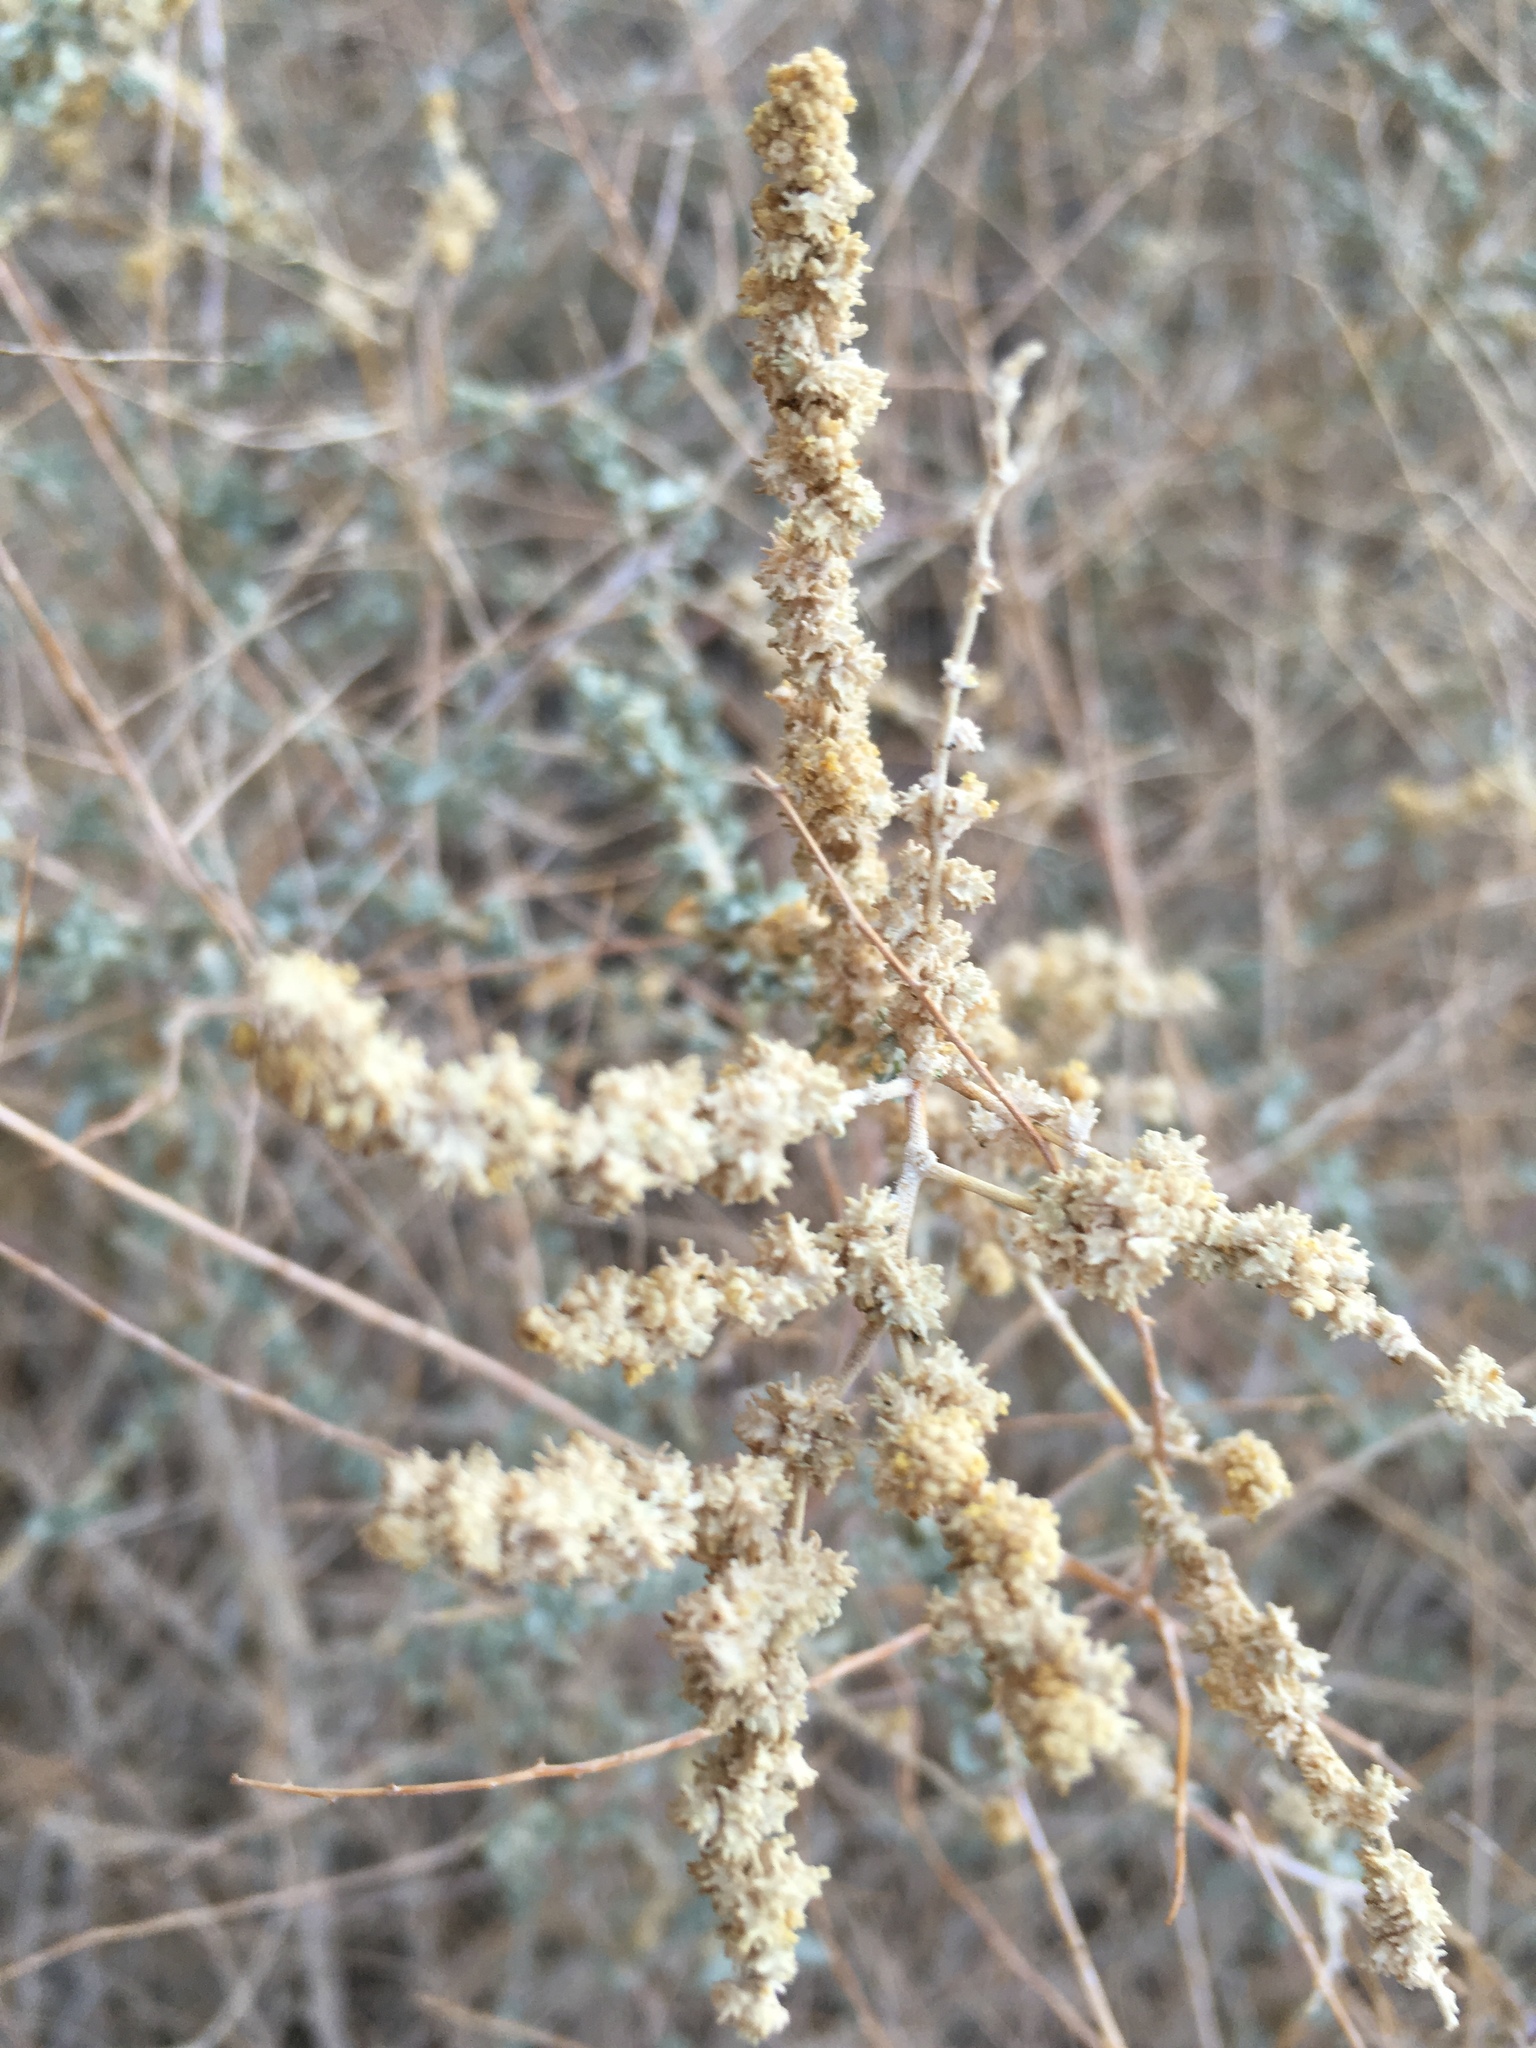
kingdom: Plantae
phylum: Tracheophyta
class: Magnoliopsida
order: Caryophyllales
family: Amaranthaceae
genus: Atriplex
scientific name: Atriplex polycarpa
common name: Desert saltbush
